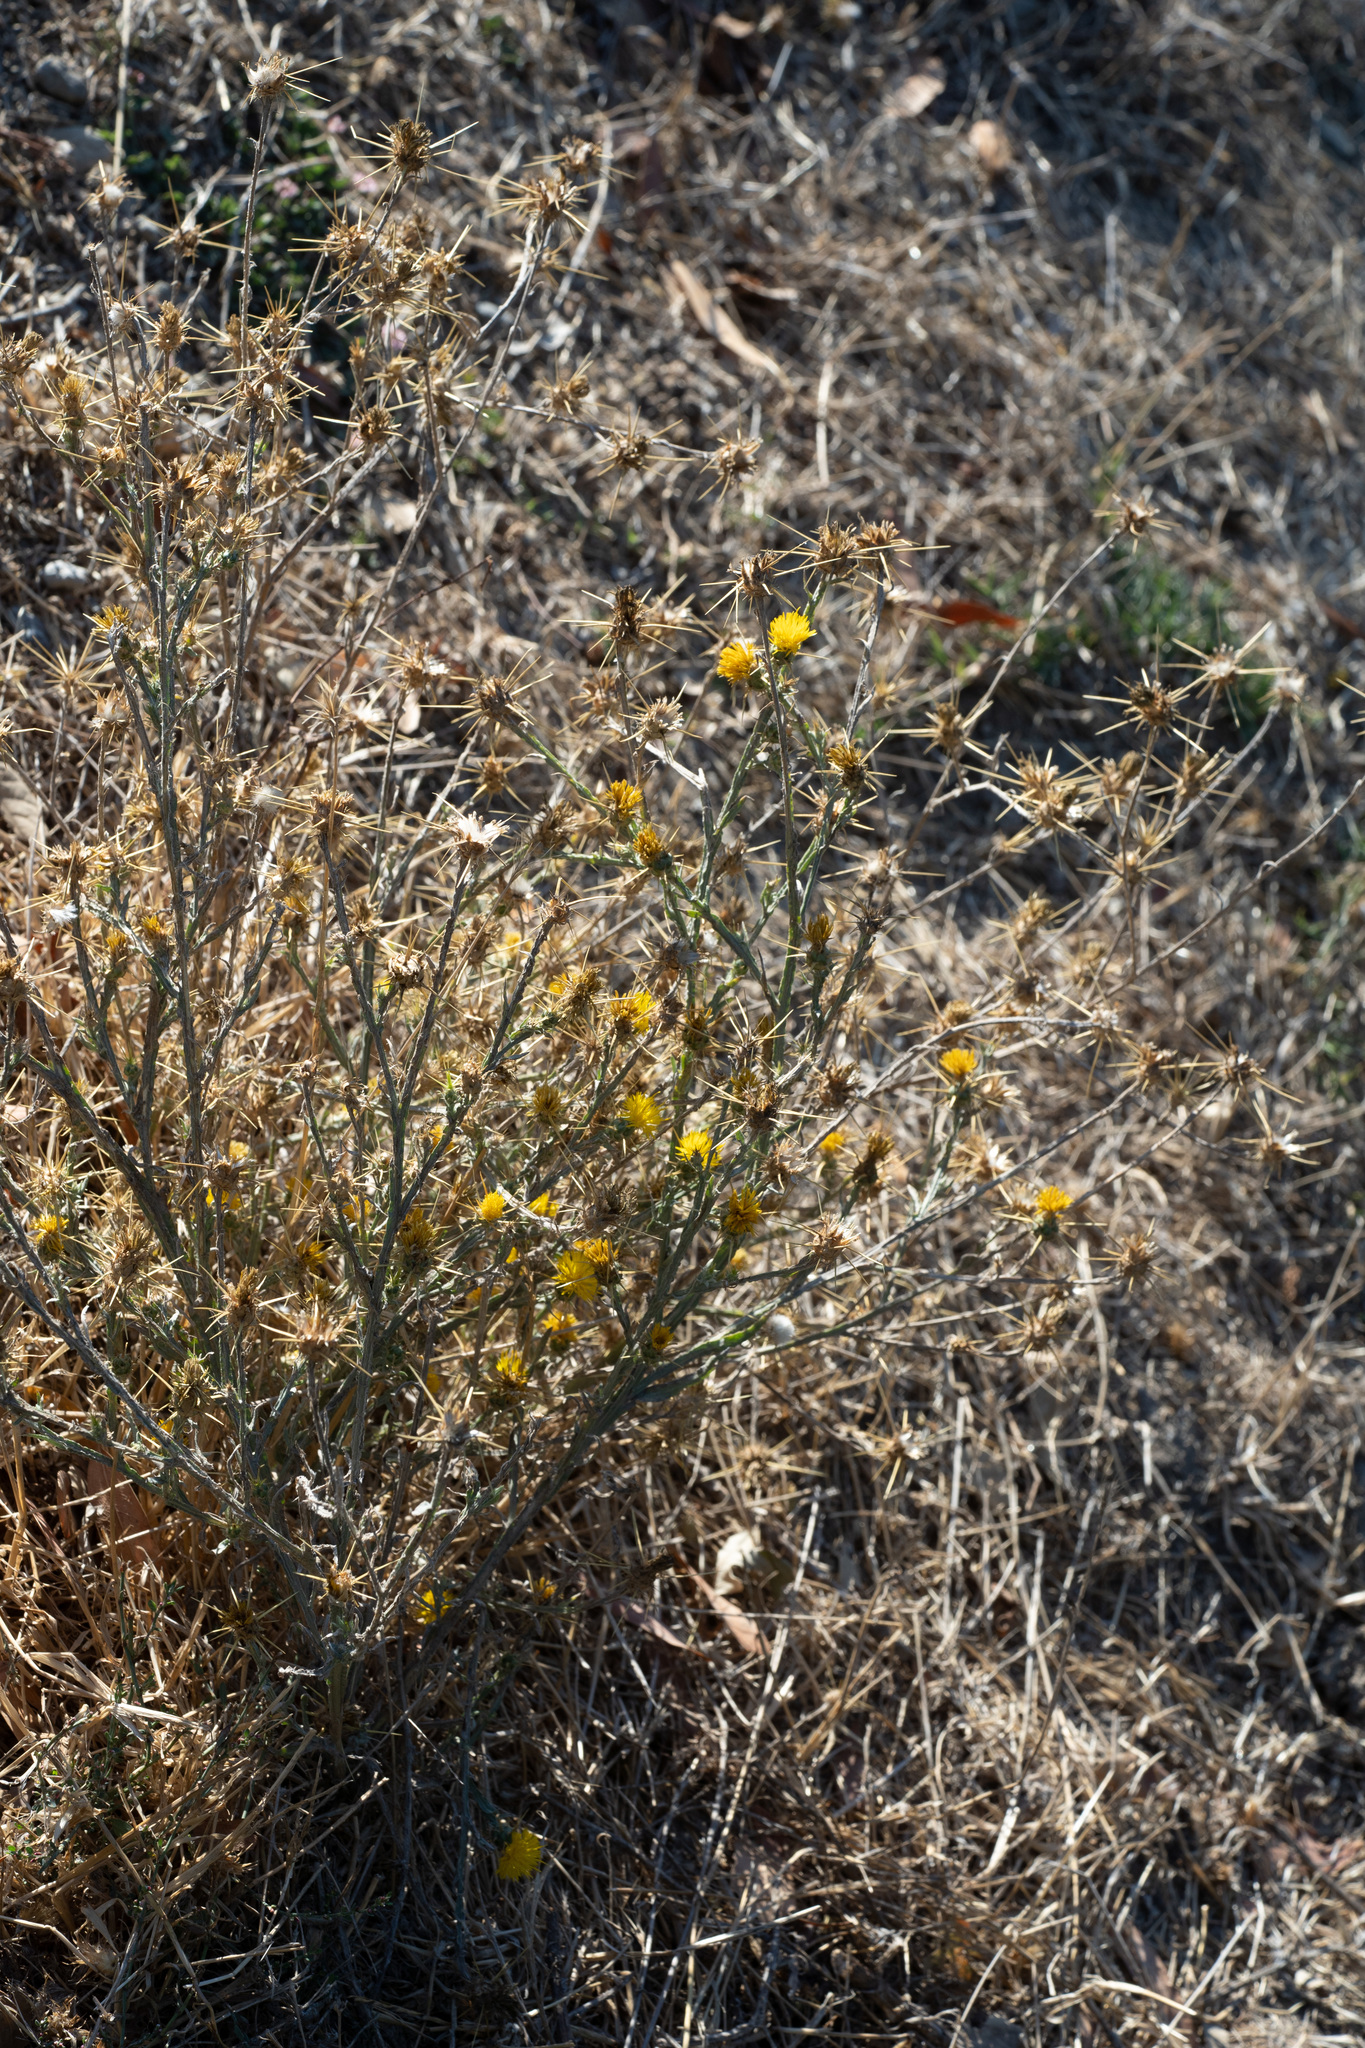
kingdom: Plantae
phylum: Tracheophyta
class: Magnoliopsida
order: Asterales
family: Asteraceae
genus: Centaurea
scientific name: Centaurea solstitialis
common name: Yellow star-thistle
